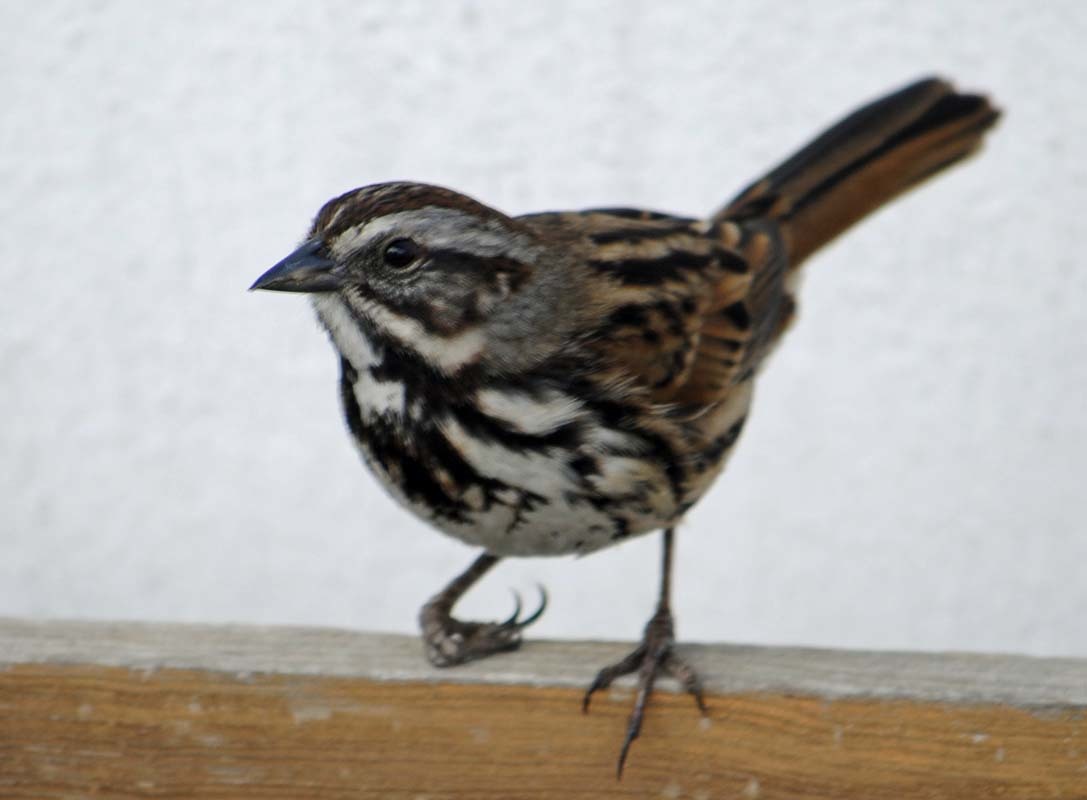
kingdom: Animalia
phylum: Chordata
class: Aves
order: Passeriformes
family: Passerellidae
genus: Melospiza
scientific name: Melospiza melodia
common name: Song sparrow
